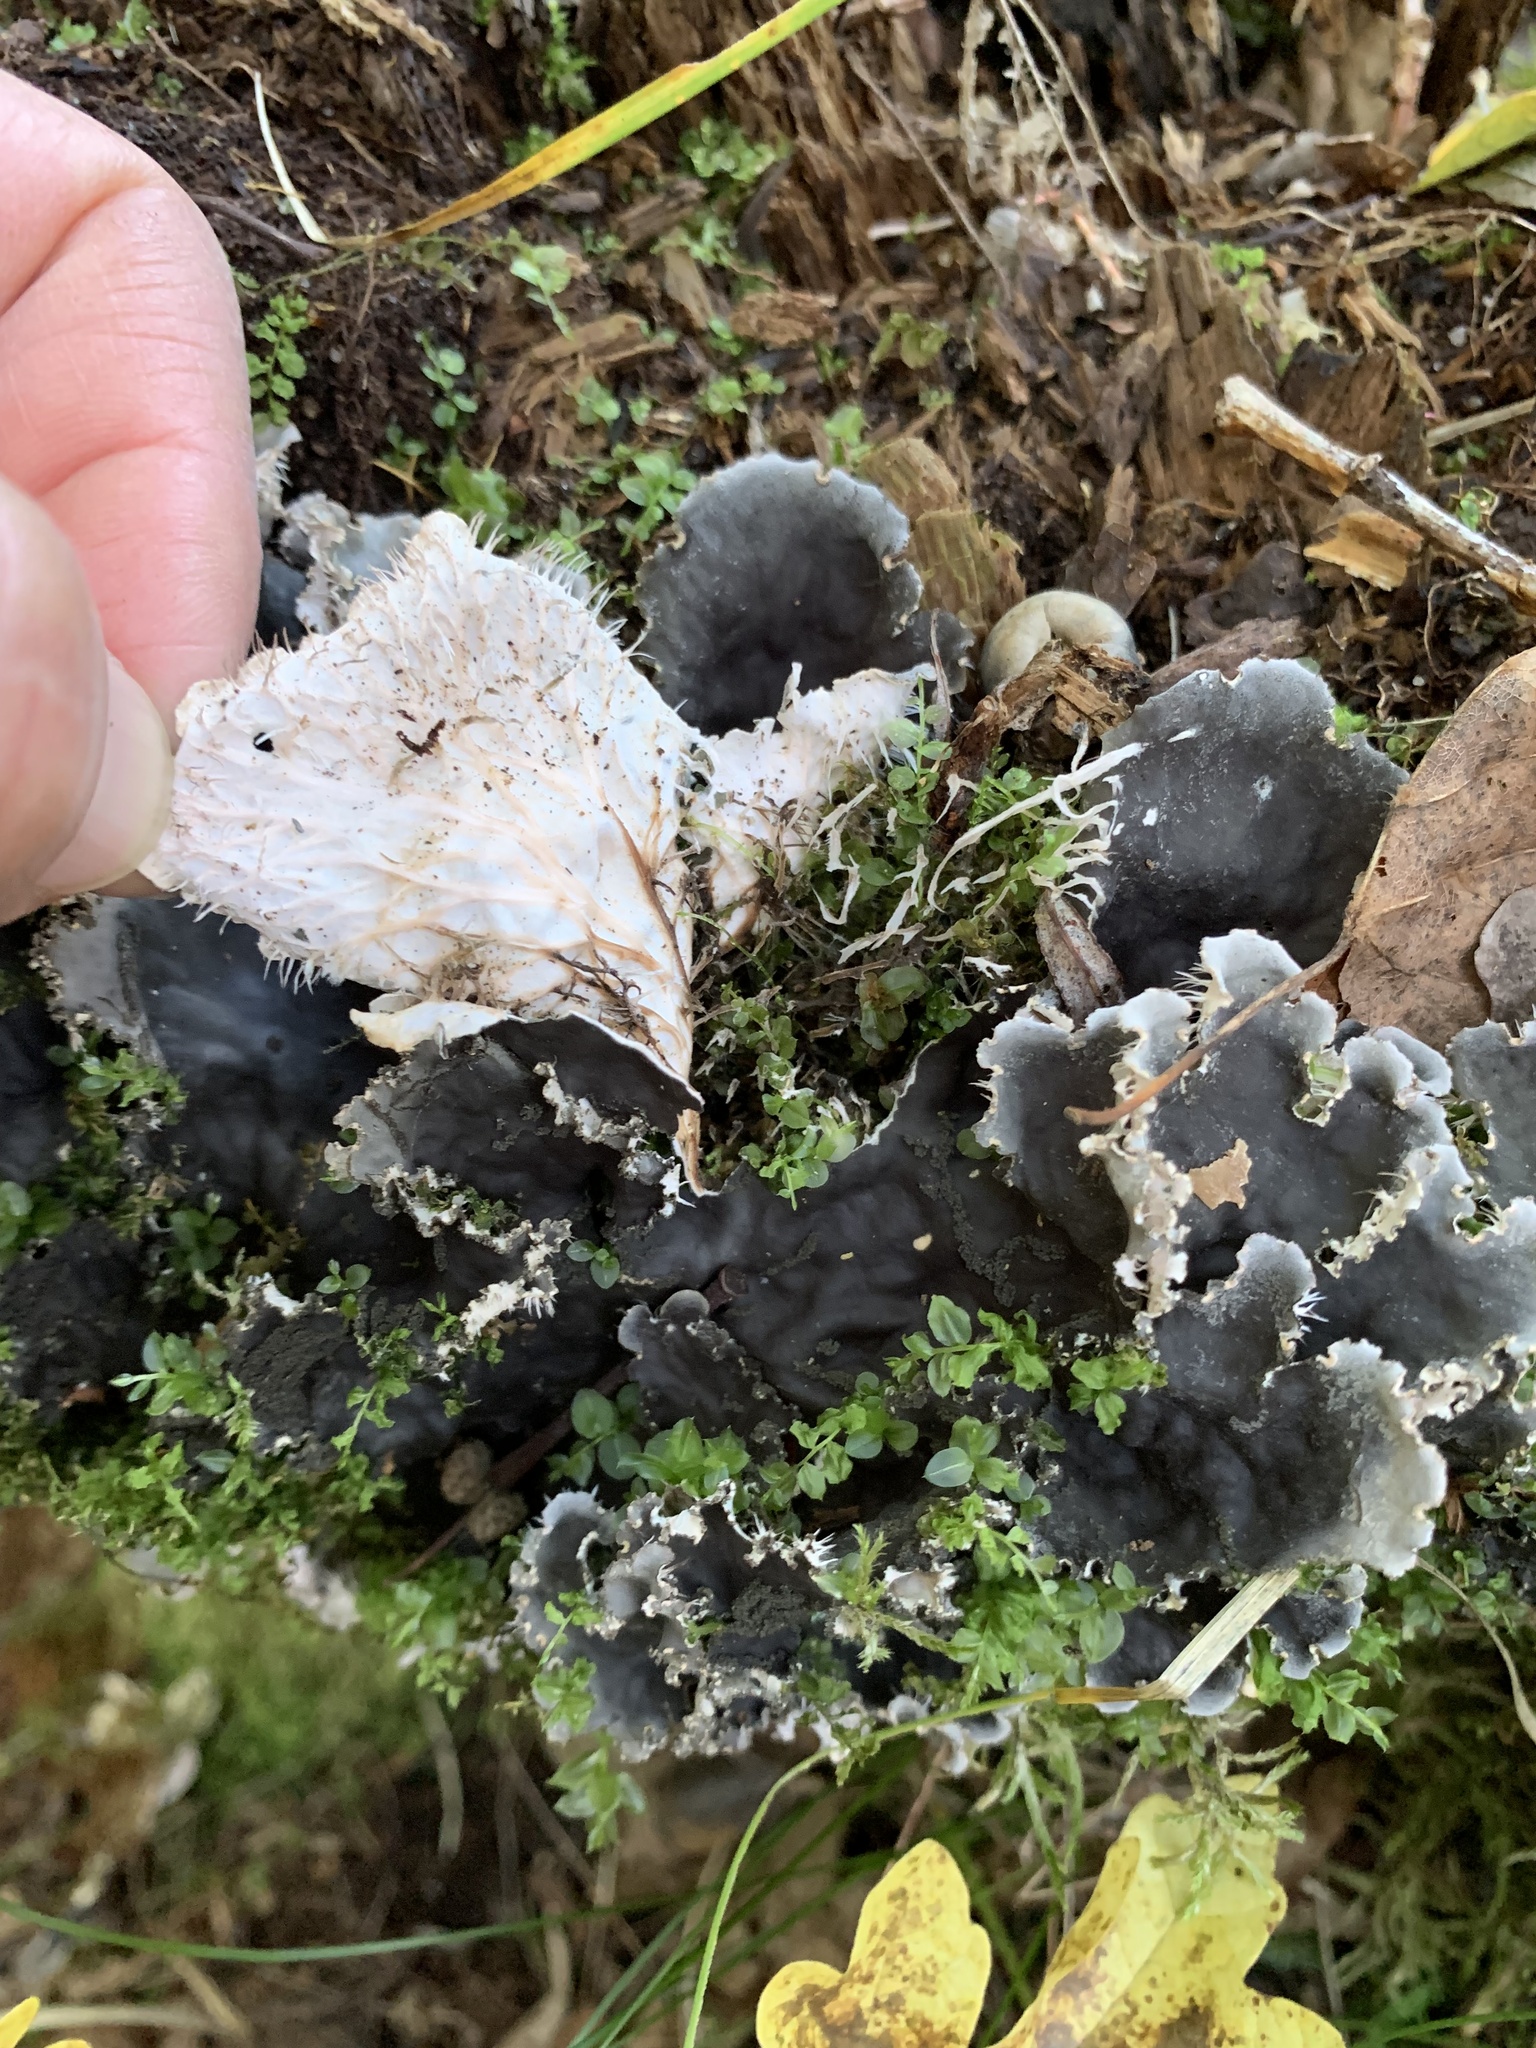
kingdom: Fungi
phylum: Ascomycota
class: Lecanoromycetes
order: Peltigerales
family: Peltigeraceae
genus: Peltigera
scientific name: Peltigera praetextata
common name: Scaly dog-lichen
